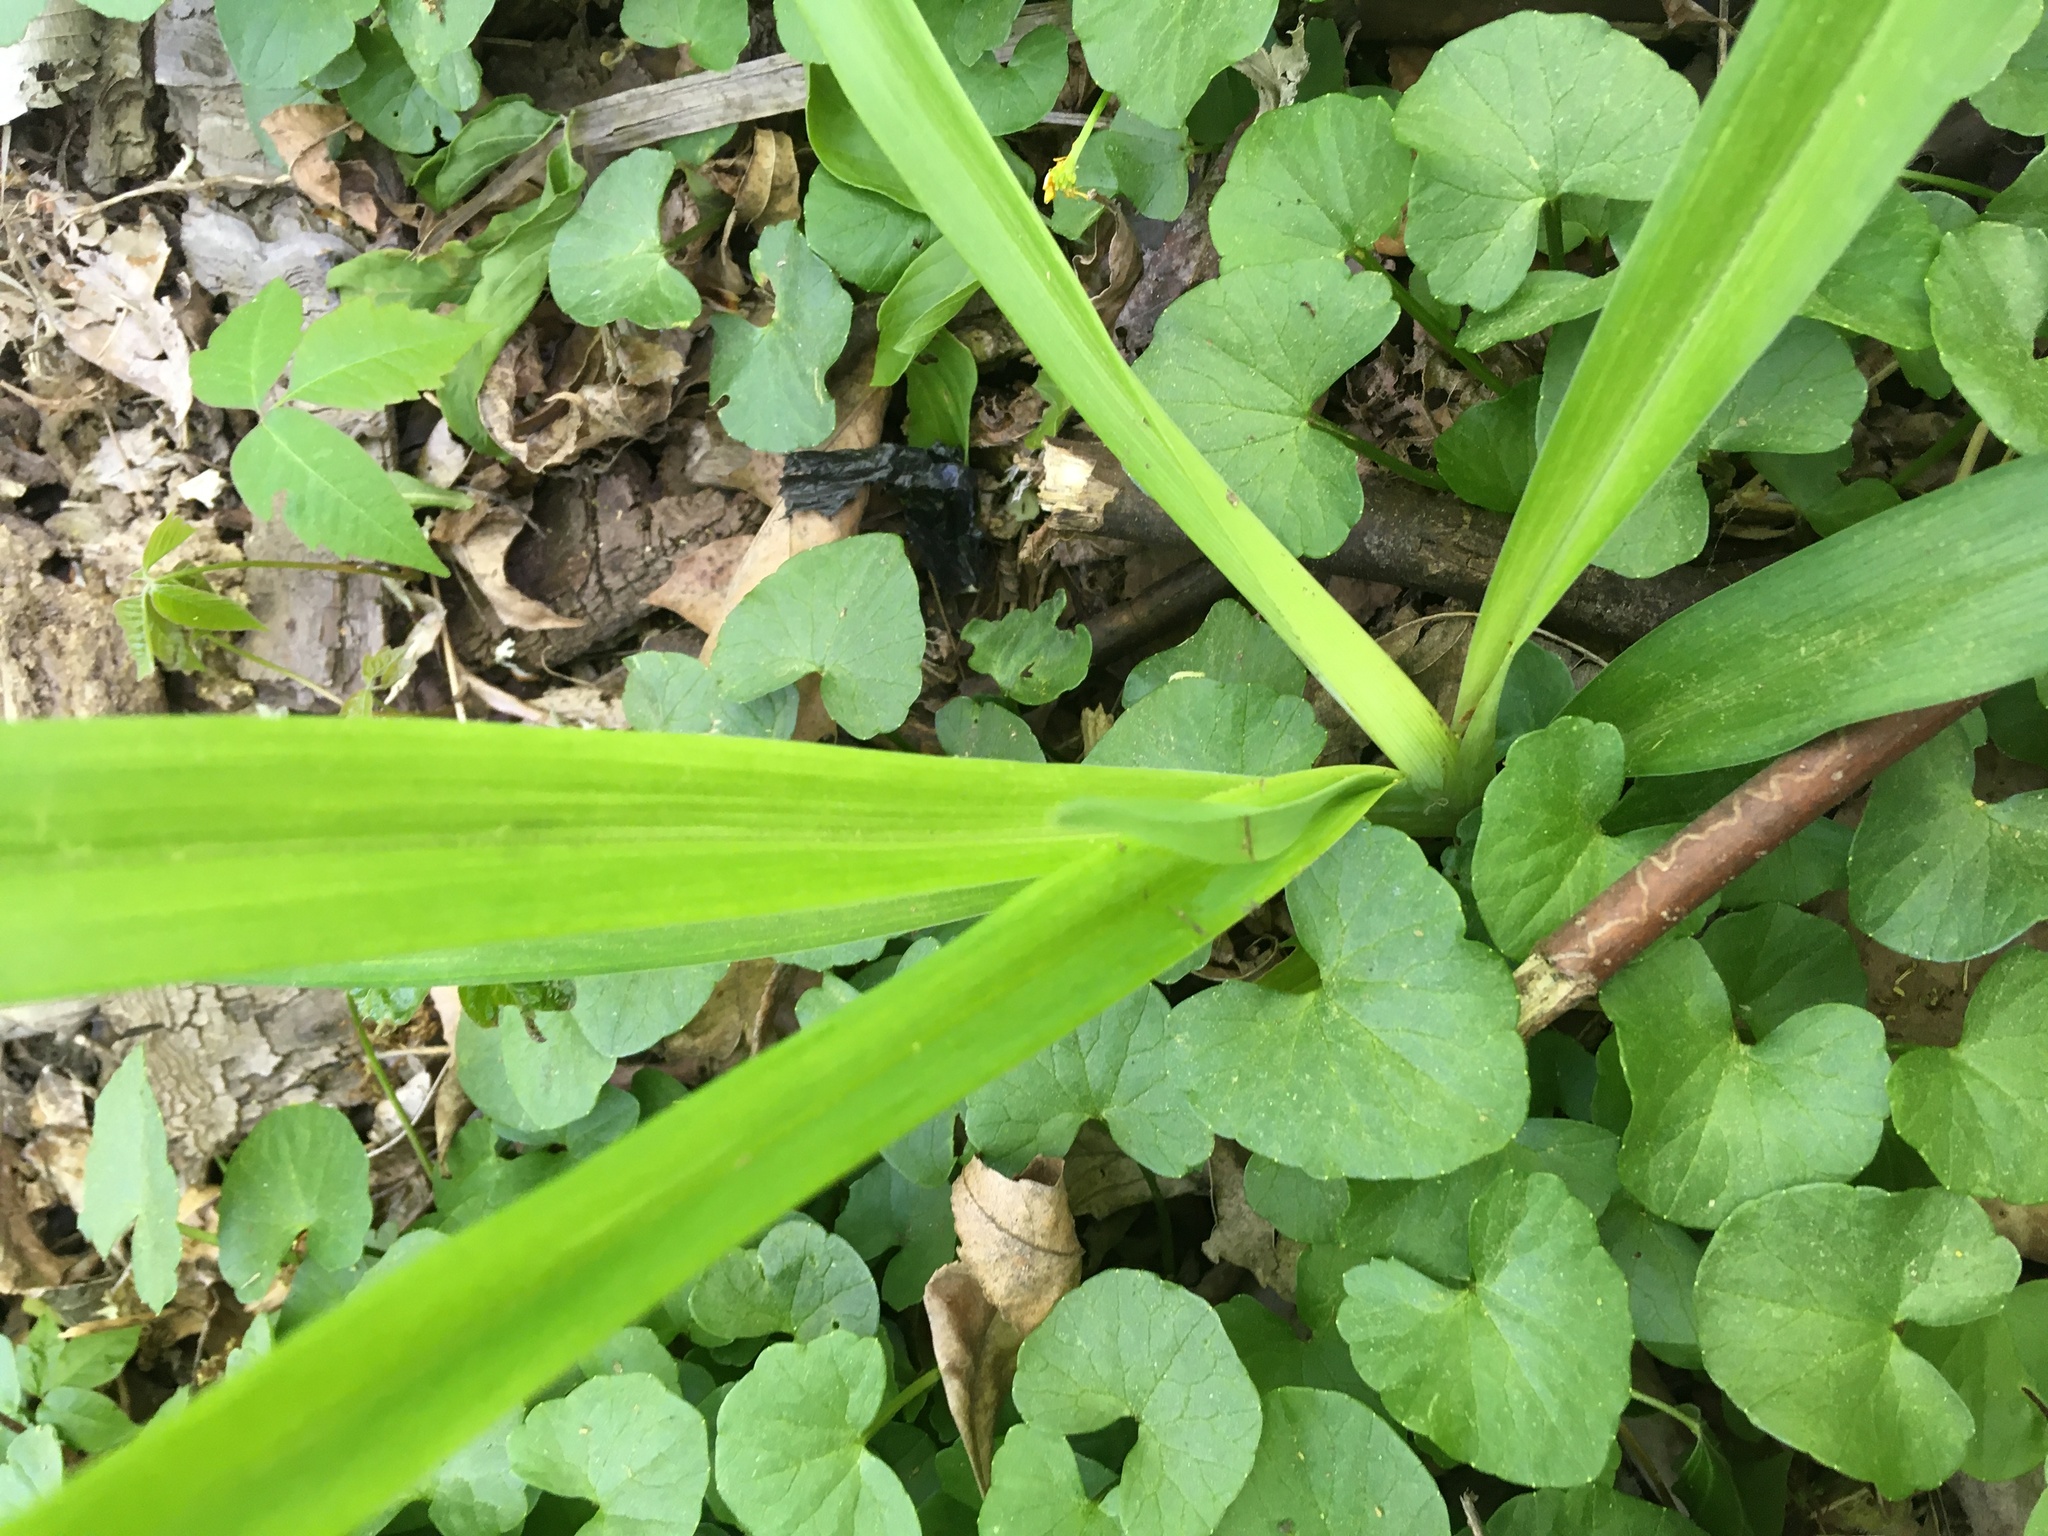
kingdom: Plantae
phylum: Tracheophyta
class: Liliopsida
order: Asparagales
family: Asphodelaceae
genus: Hemerocallis
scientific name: Hemerocallis fulva
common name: Orange day-lily
